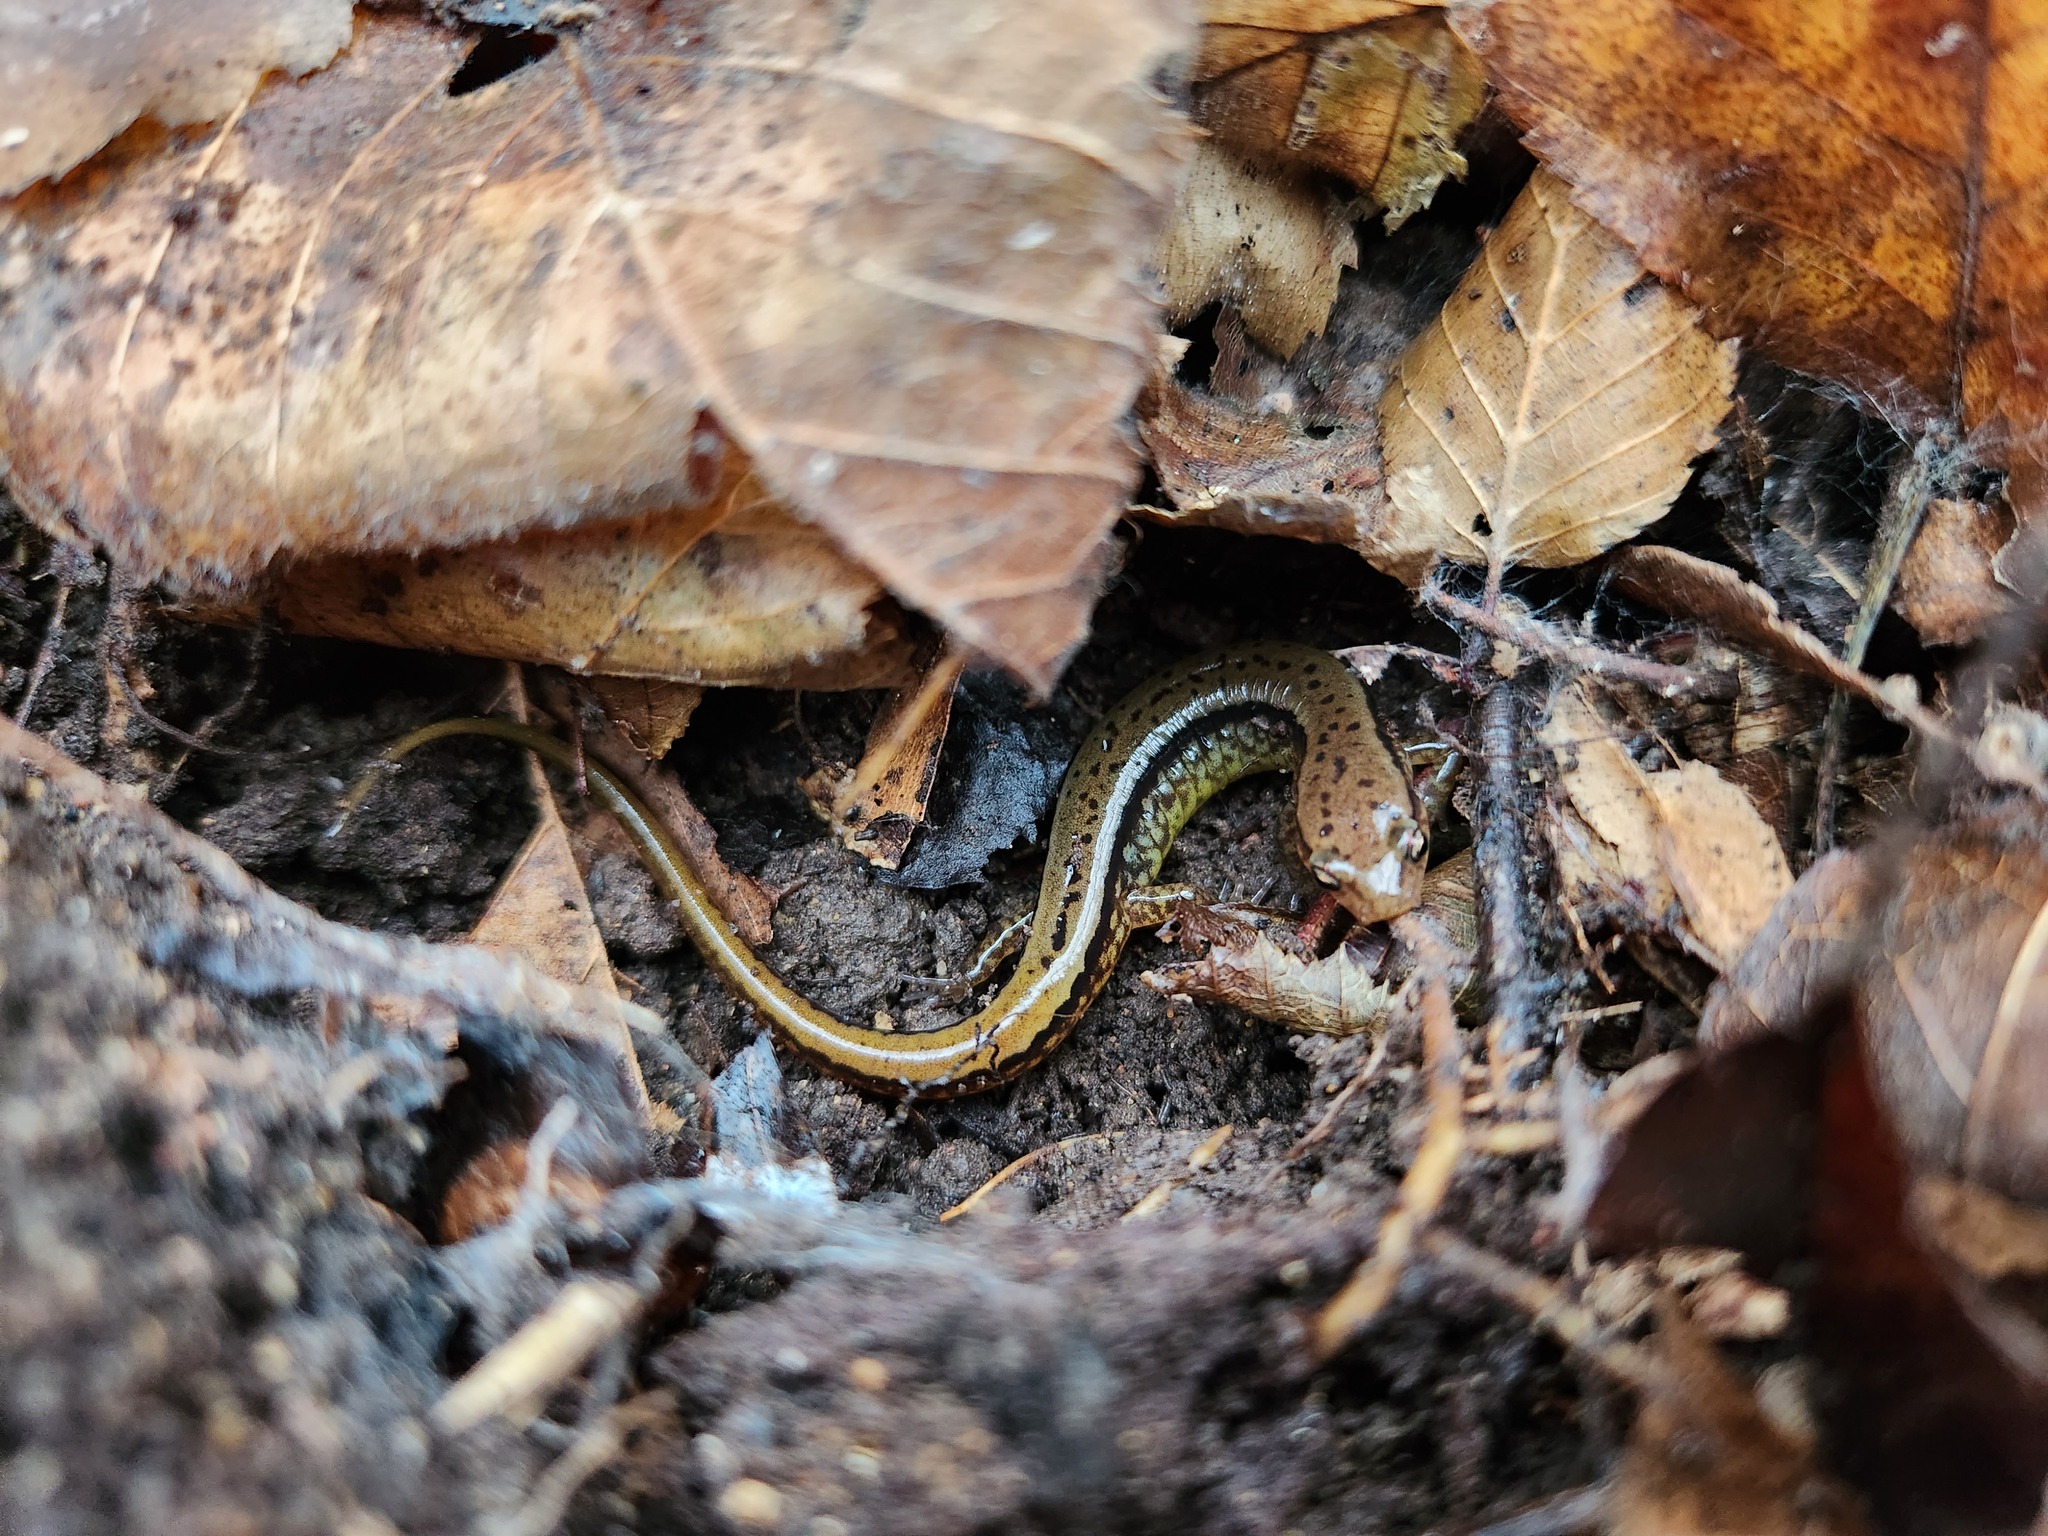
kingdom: Animalia
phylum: Chordata
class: Amphibia
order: Caudata
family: Plethodontidae
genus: Eurycea
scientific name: Eurycea cirrigera
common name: Southern two-lined salamander
